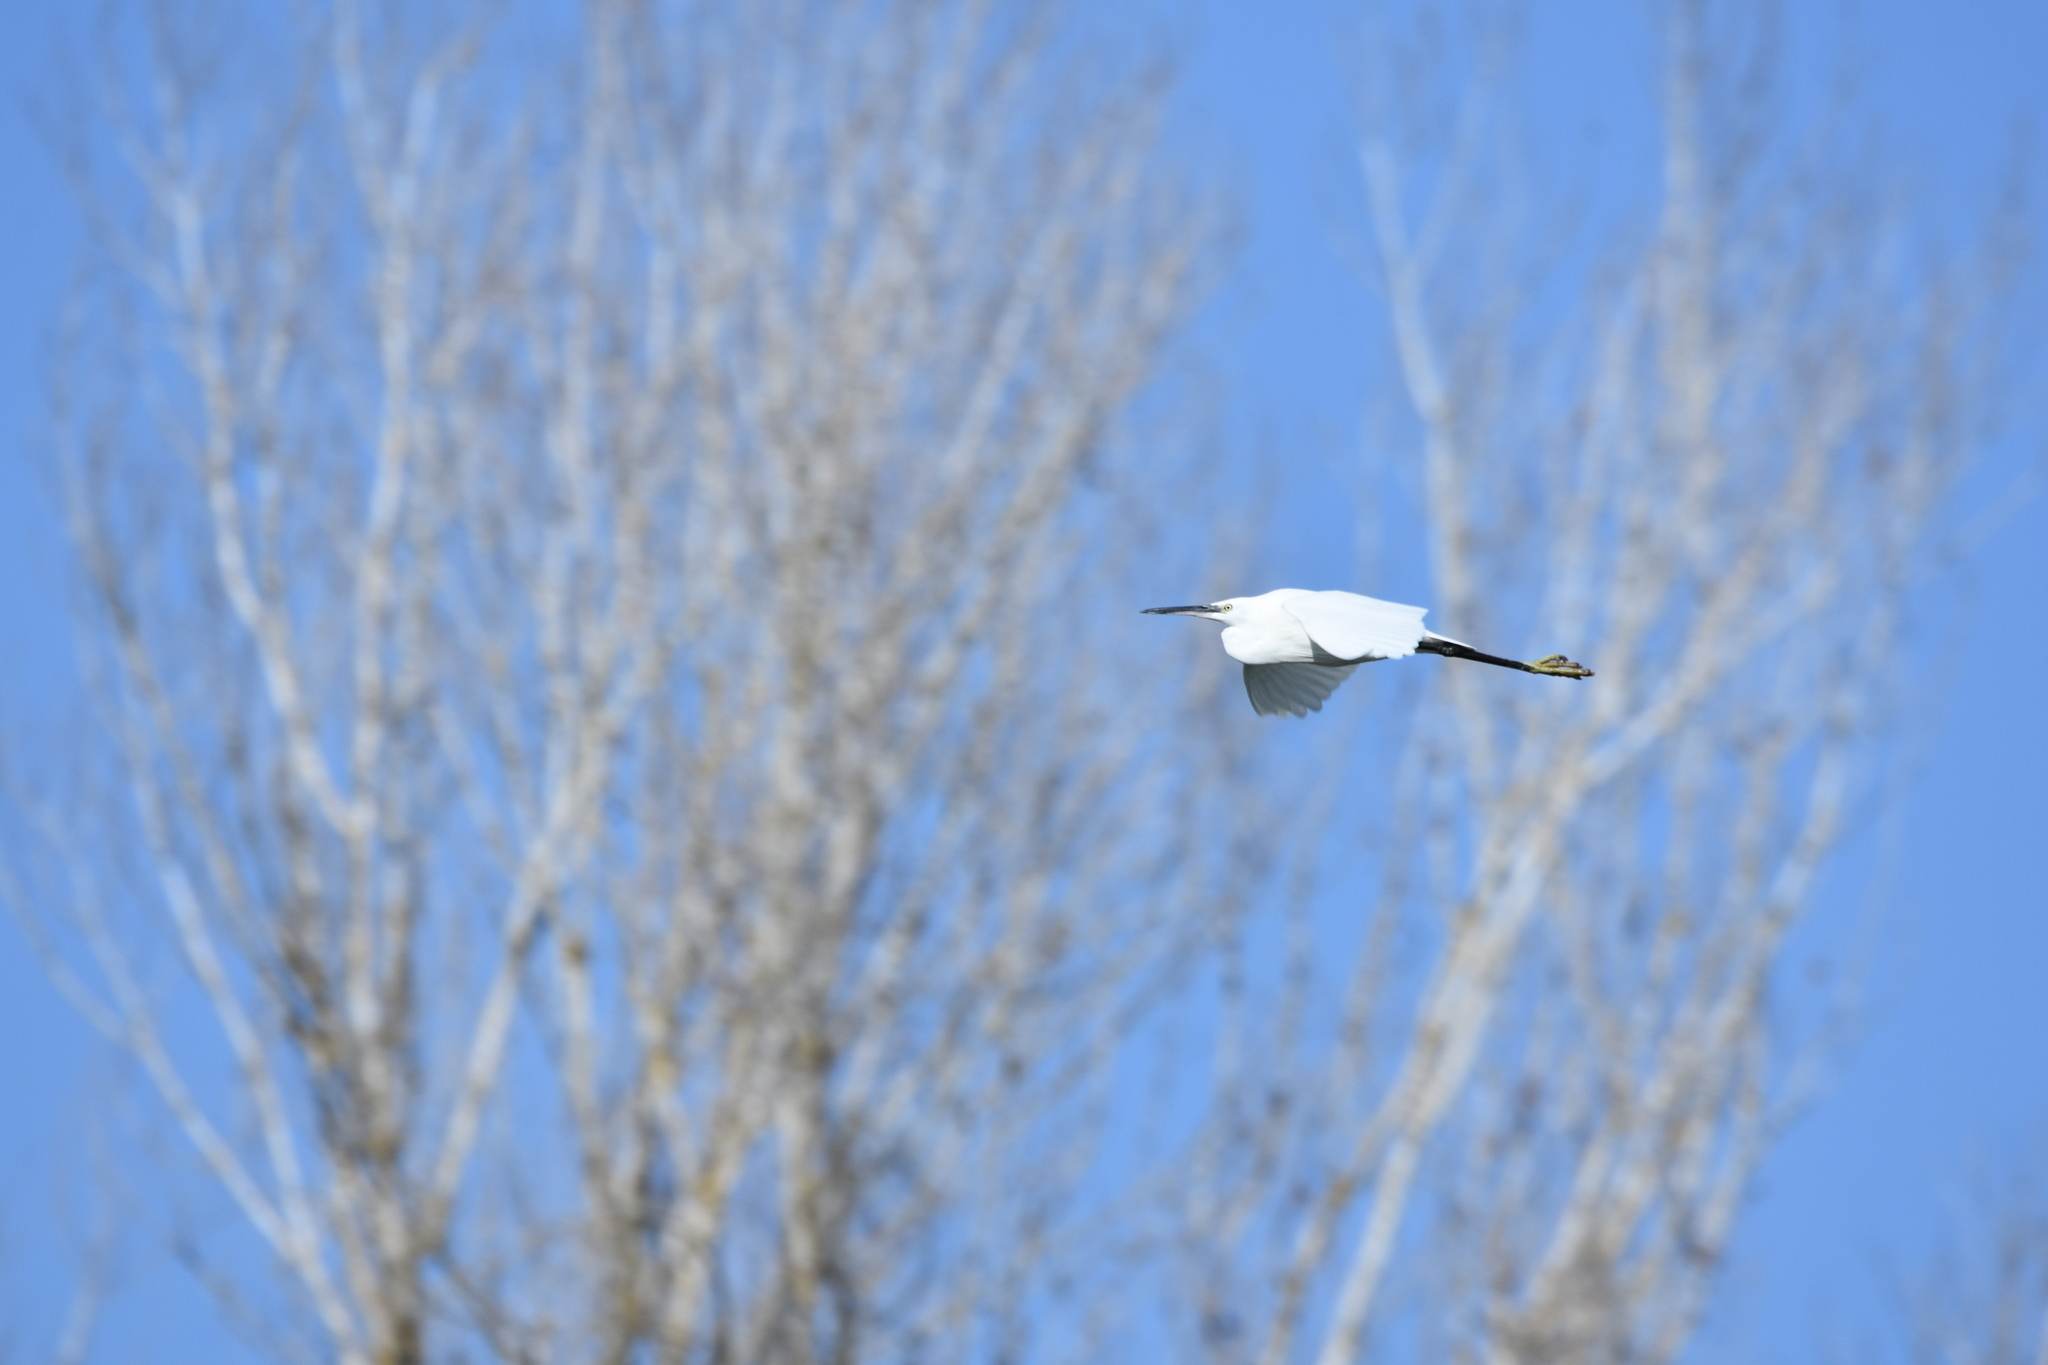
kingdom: Animalia
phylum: Chordata
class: Aves
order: Pelecaniformes
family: Ardeidae
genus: Egretta
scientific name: Egretta garzetta
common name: Little egret
